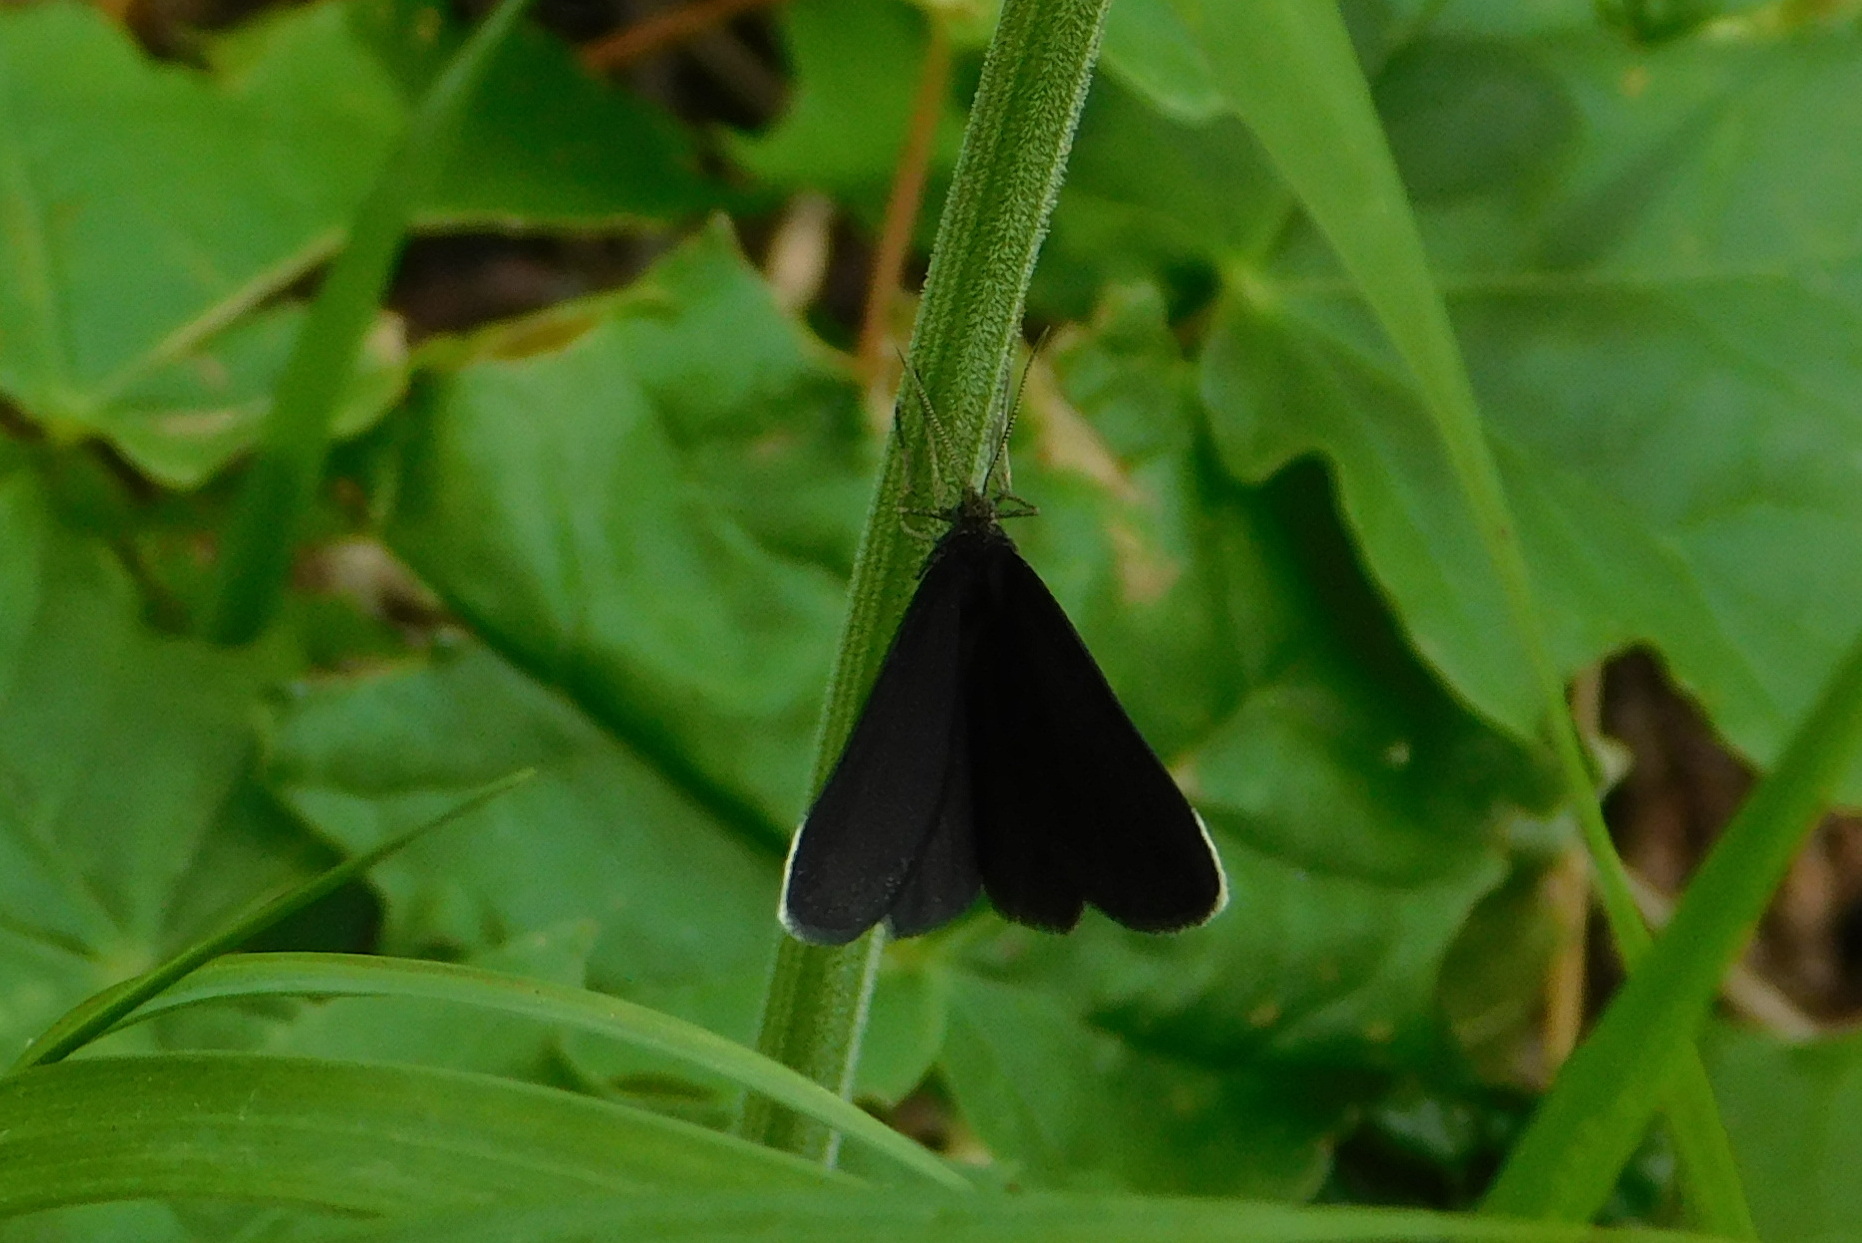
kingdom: Animalia
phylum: Arthropoda
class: Insecta
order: Lepidoptera
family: Geometridae
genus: Odezia
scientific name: Odezia atrata
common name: Chimney sweeper
